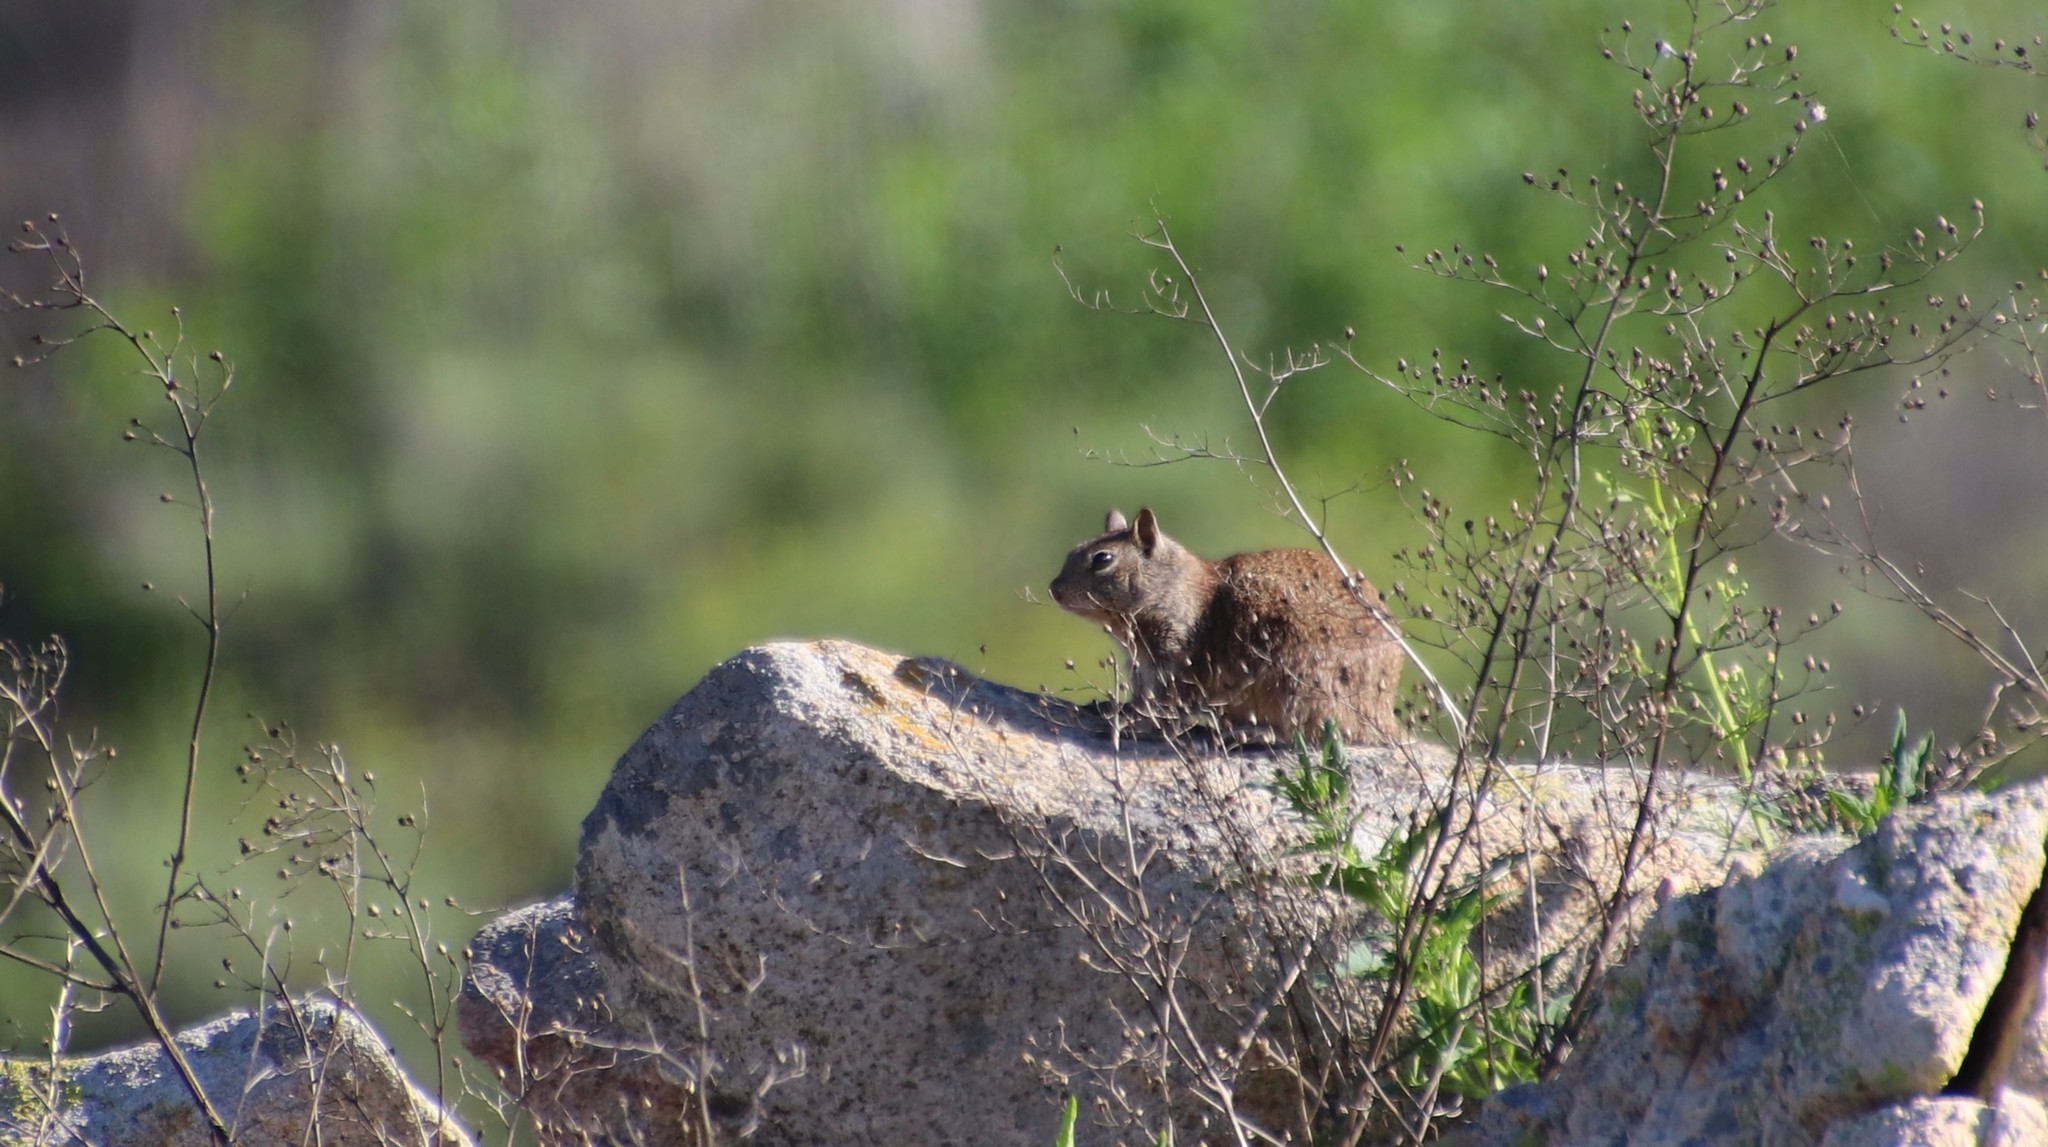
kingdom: Animalia
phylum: Chordata
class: Mammalia
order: Rodentia
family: Sciuridae
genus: Otospermophilus
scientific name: Otospermophilus beecheyi
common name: California ground squirrel
